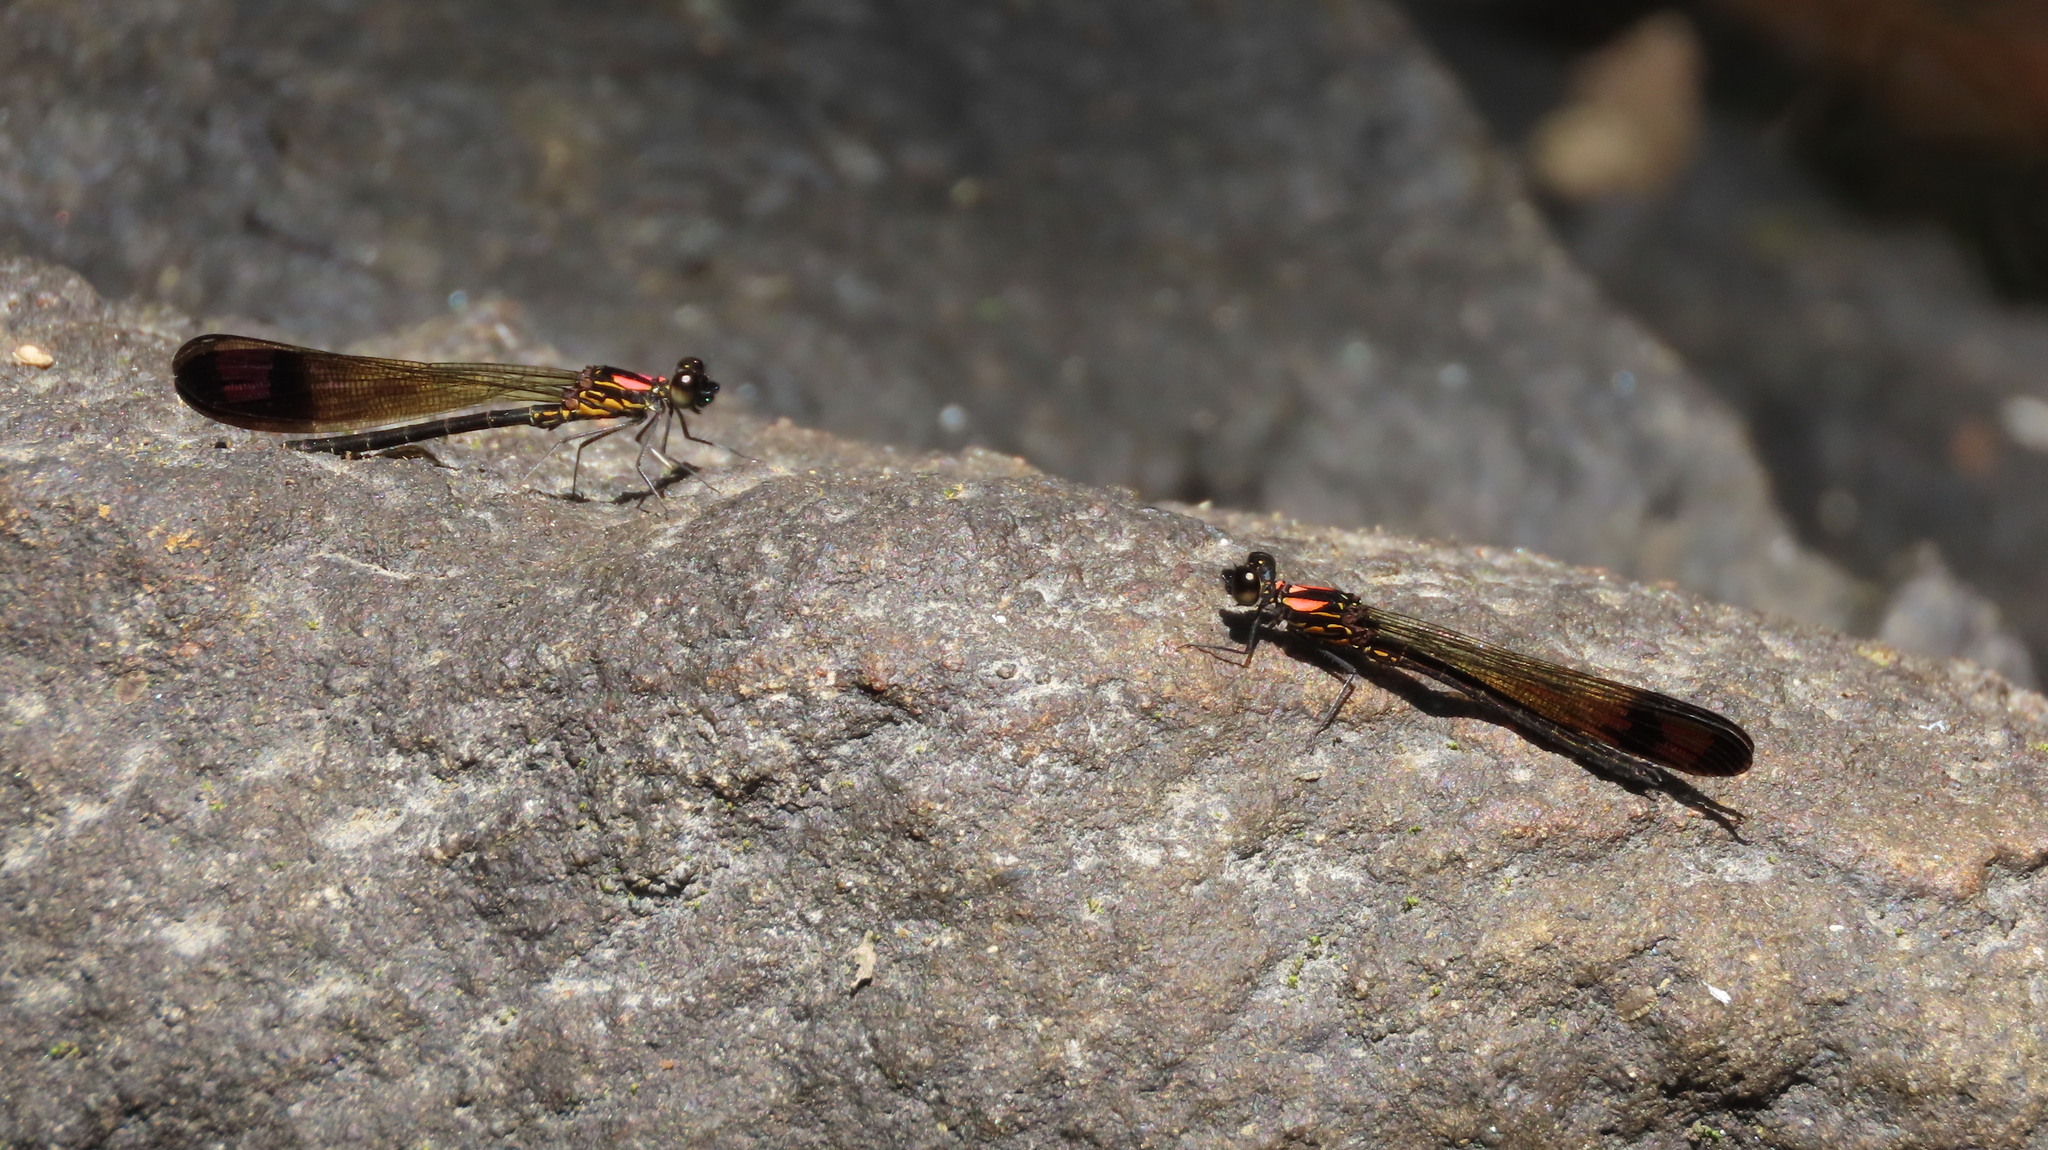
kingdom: Animalia
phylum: Arthropoda
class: Insecta
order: Odonata
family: Chlorocyphidae
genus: Heliocypha
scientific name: Heliocypha bisignata
